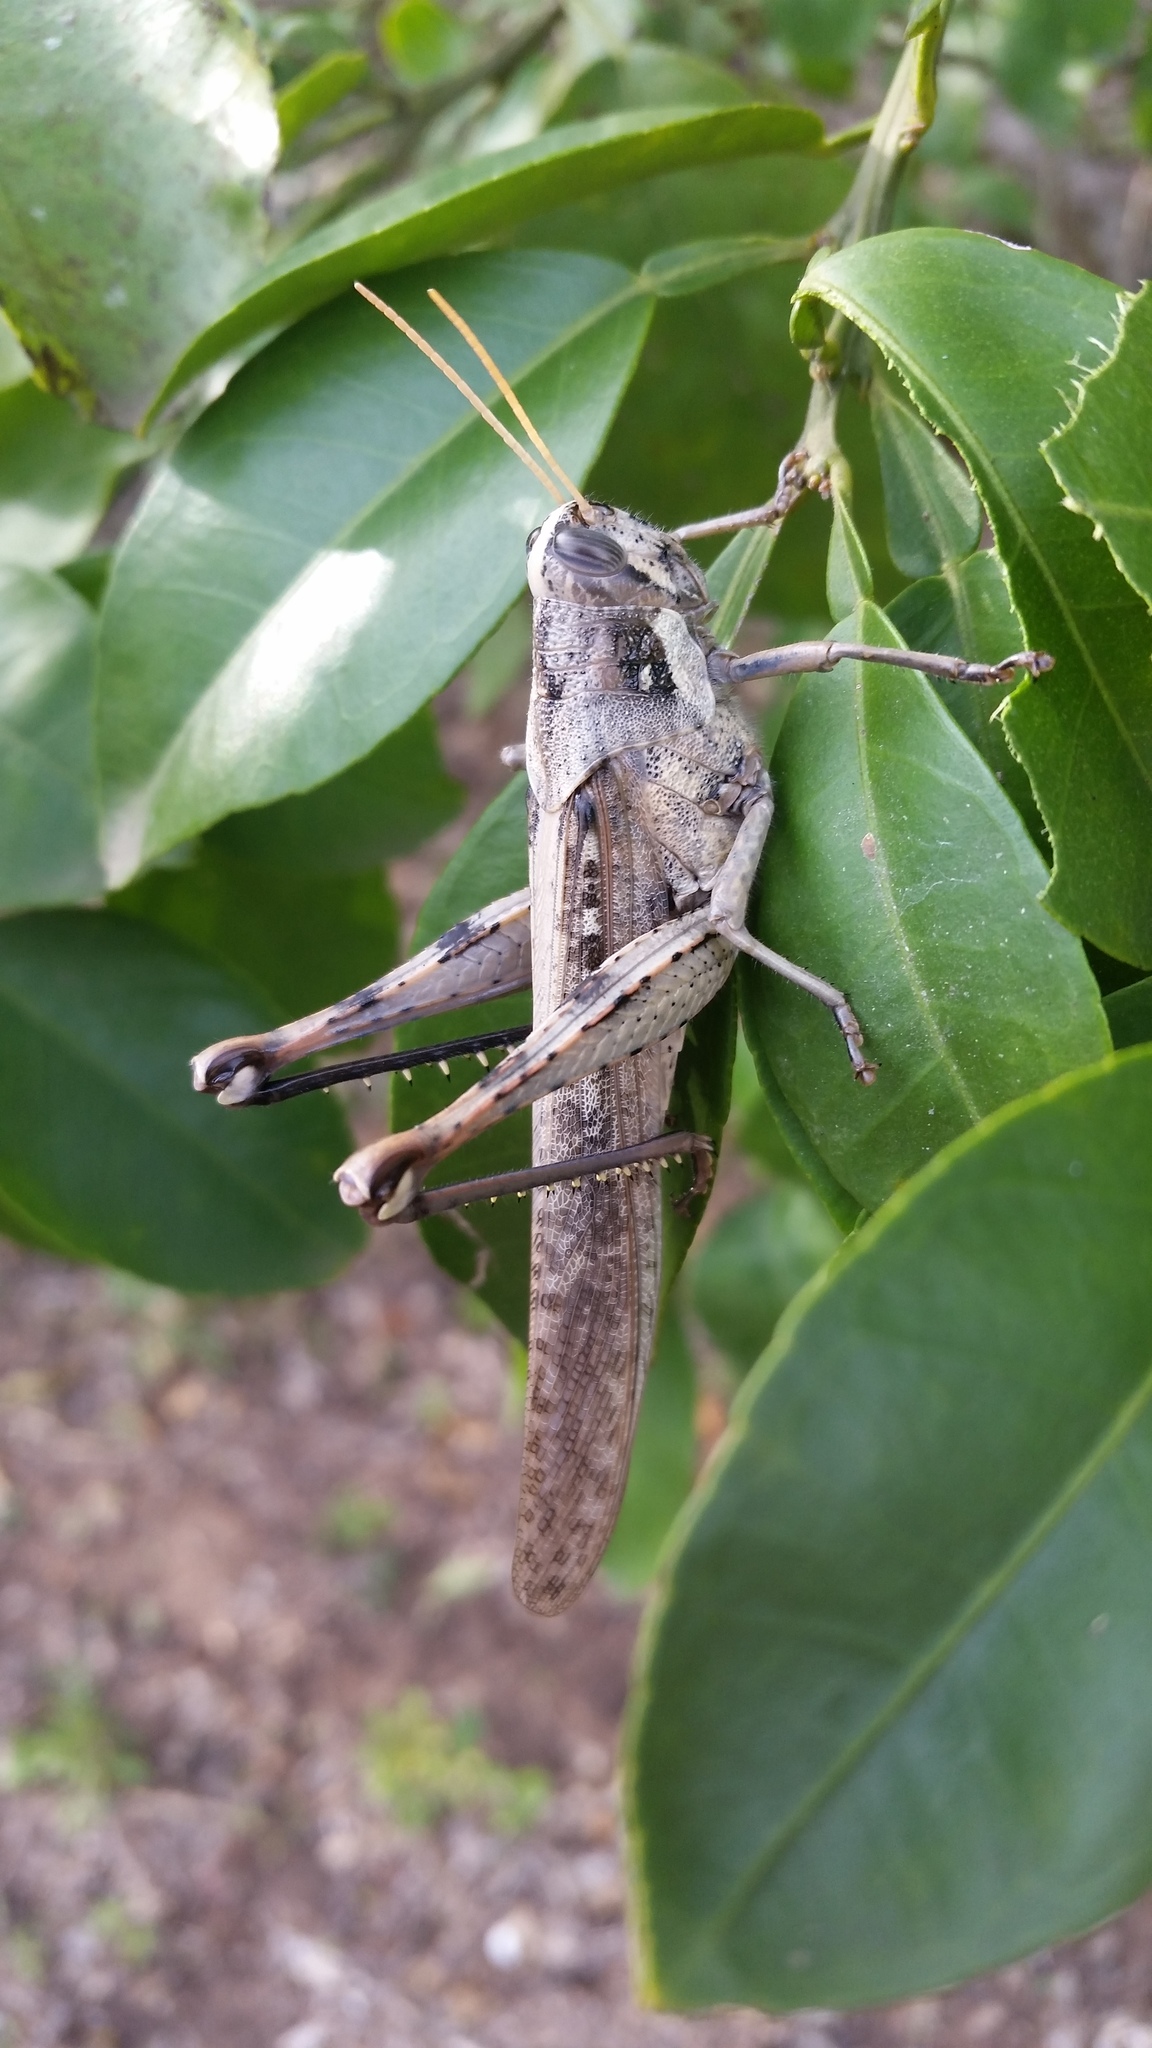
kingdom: Animalia
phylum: Arthropoda
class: Insecta
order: Orthoptera
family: Acrididae
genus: Schistocerca
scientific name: Schistocerca nitens
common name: Vagrant grasshopper
